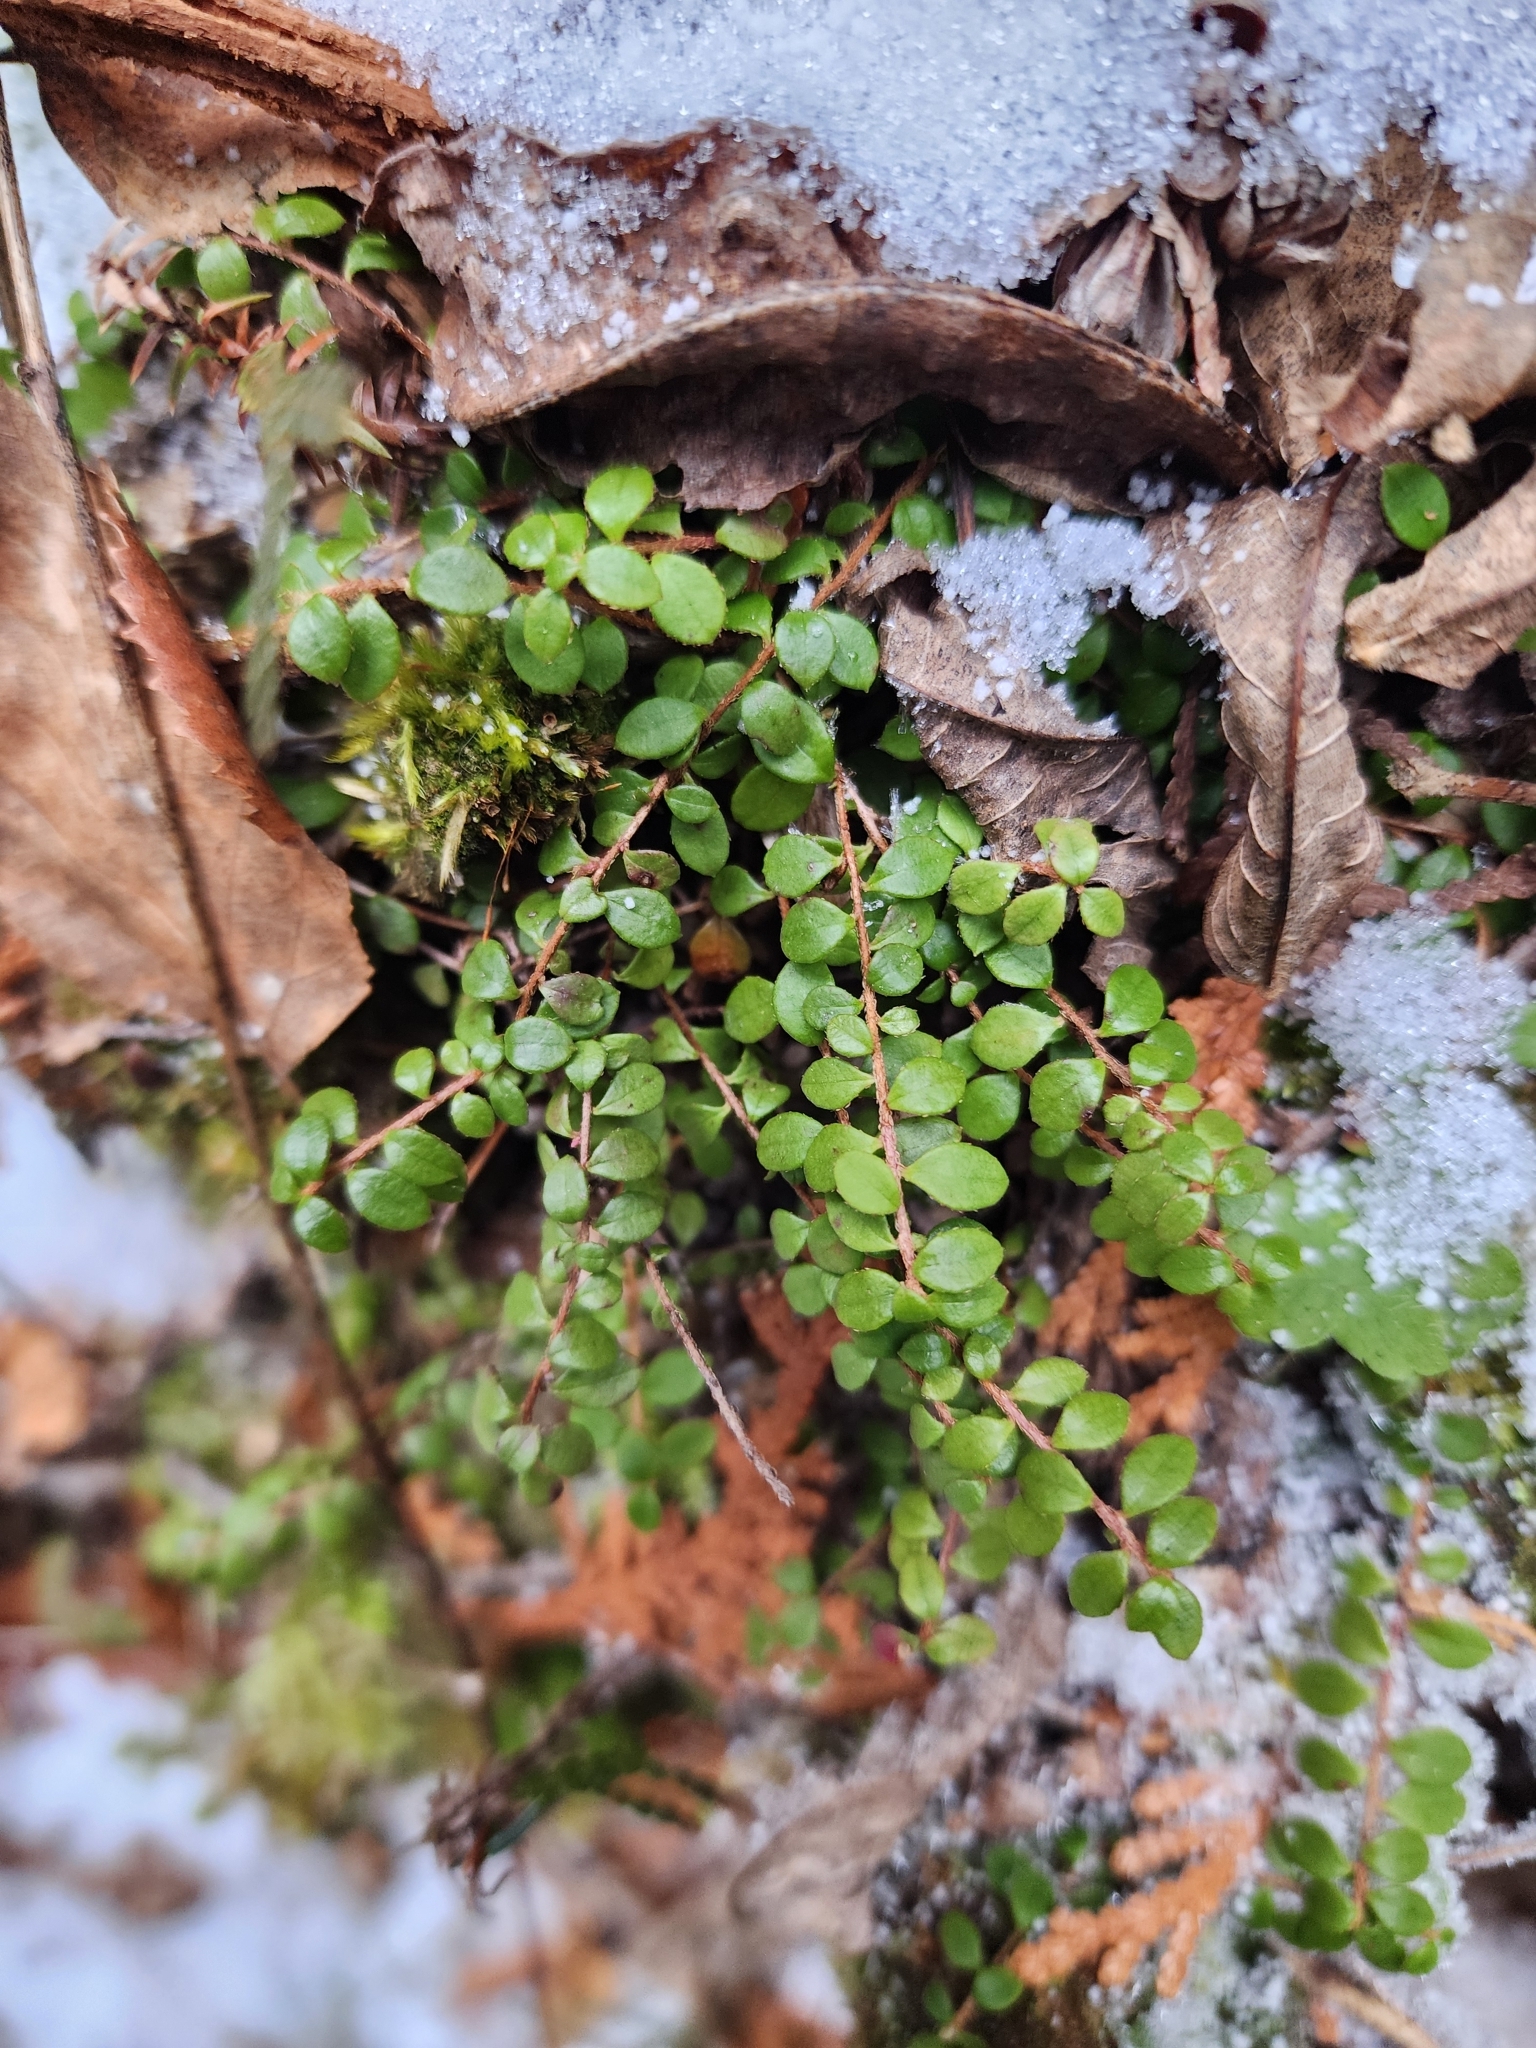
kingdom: Plantae
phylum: Tracheophyta
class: Magnoliopsida
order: Ericales
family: Ericaceae
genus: Gaultheria
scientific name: Gaultheria hispidula
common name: Cancer wintergreen
